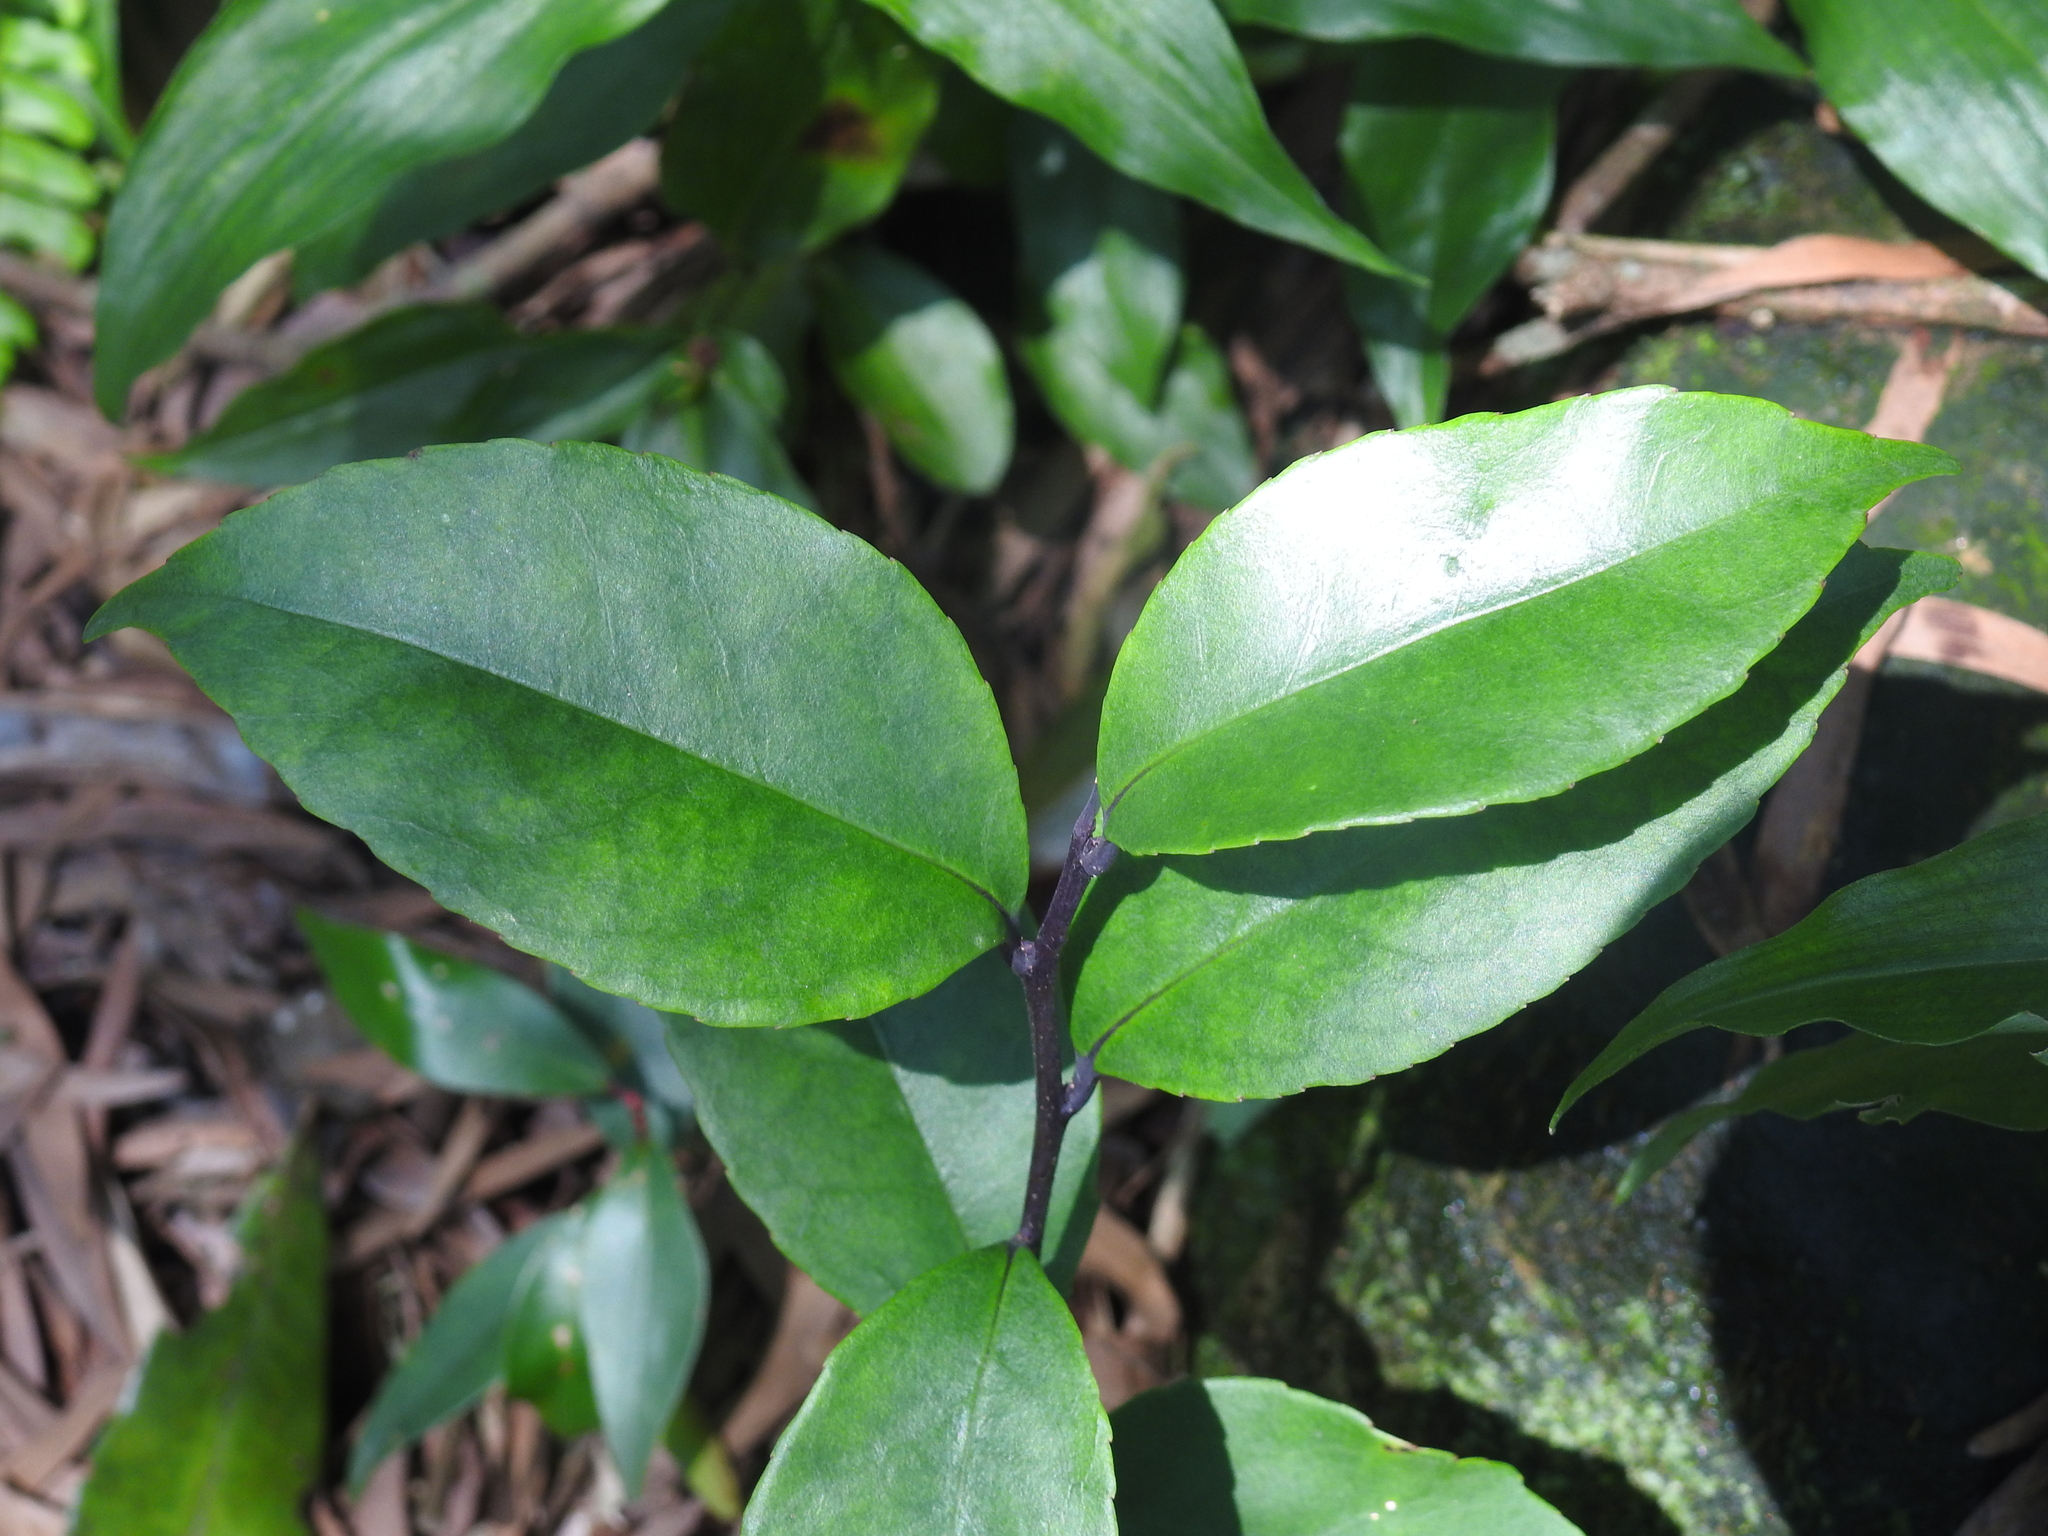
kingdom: Plantae
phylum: Tracheophyta
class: Magnoliopsida
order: Aquifoliales
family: Aquifoliaceae
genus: Ilex
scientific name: Ilex uraiensis
